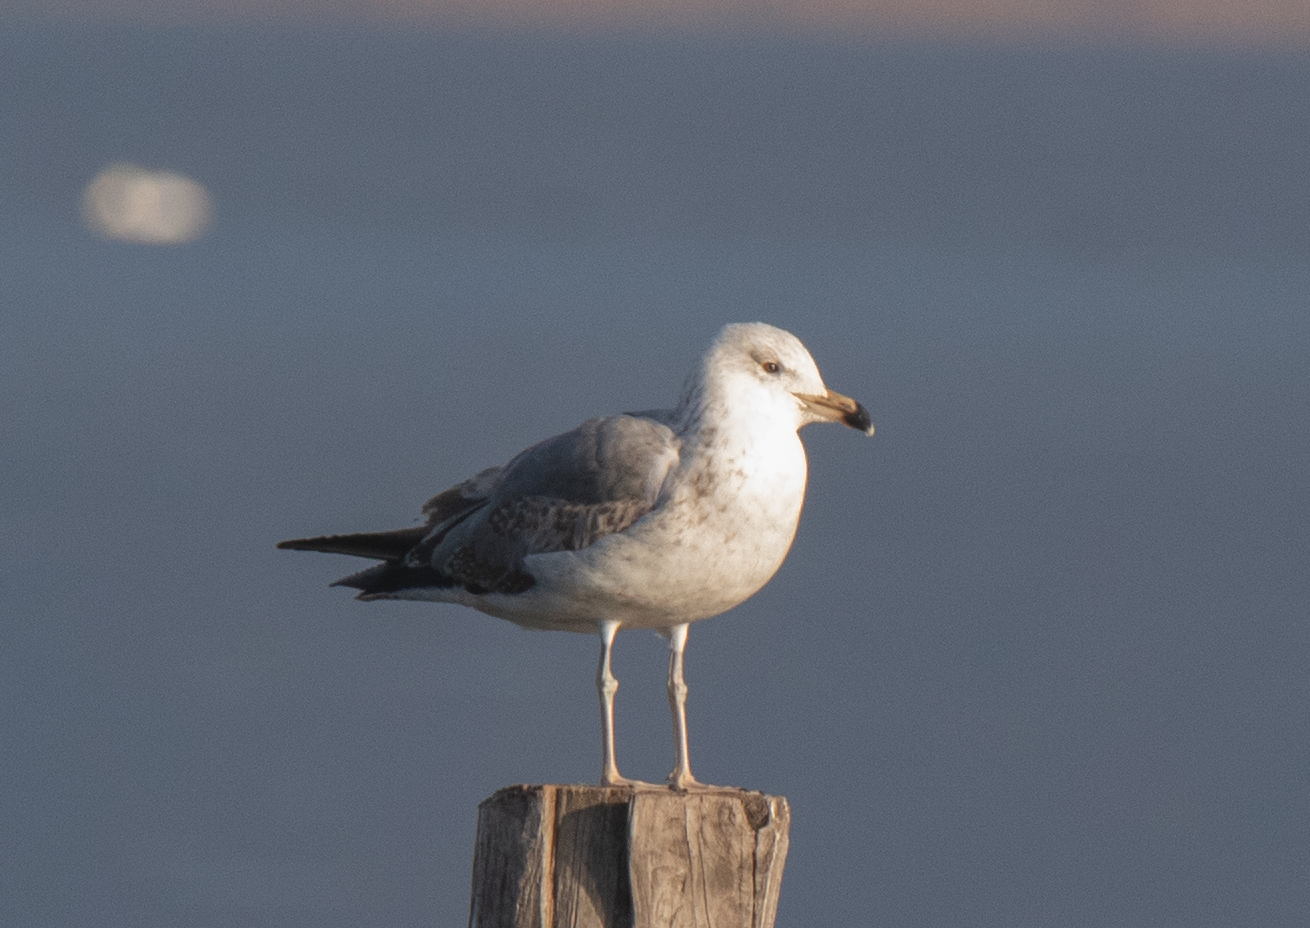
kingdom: Animalia
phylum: Chordata
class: Aves
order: Charadriiformes
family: Laridae
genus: Larus
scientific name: Larus michahellis
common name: Yellow-legged gull
